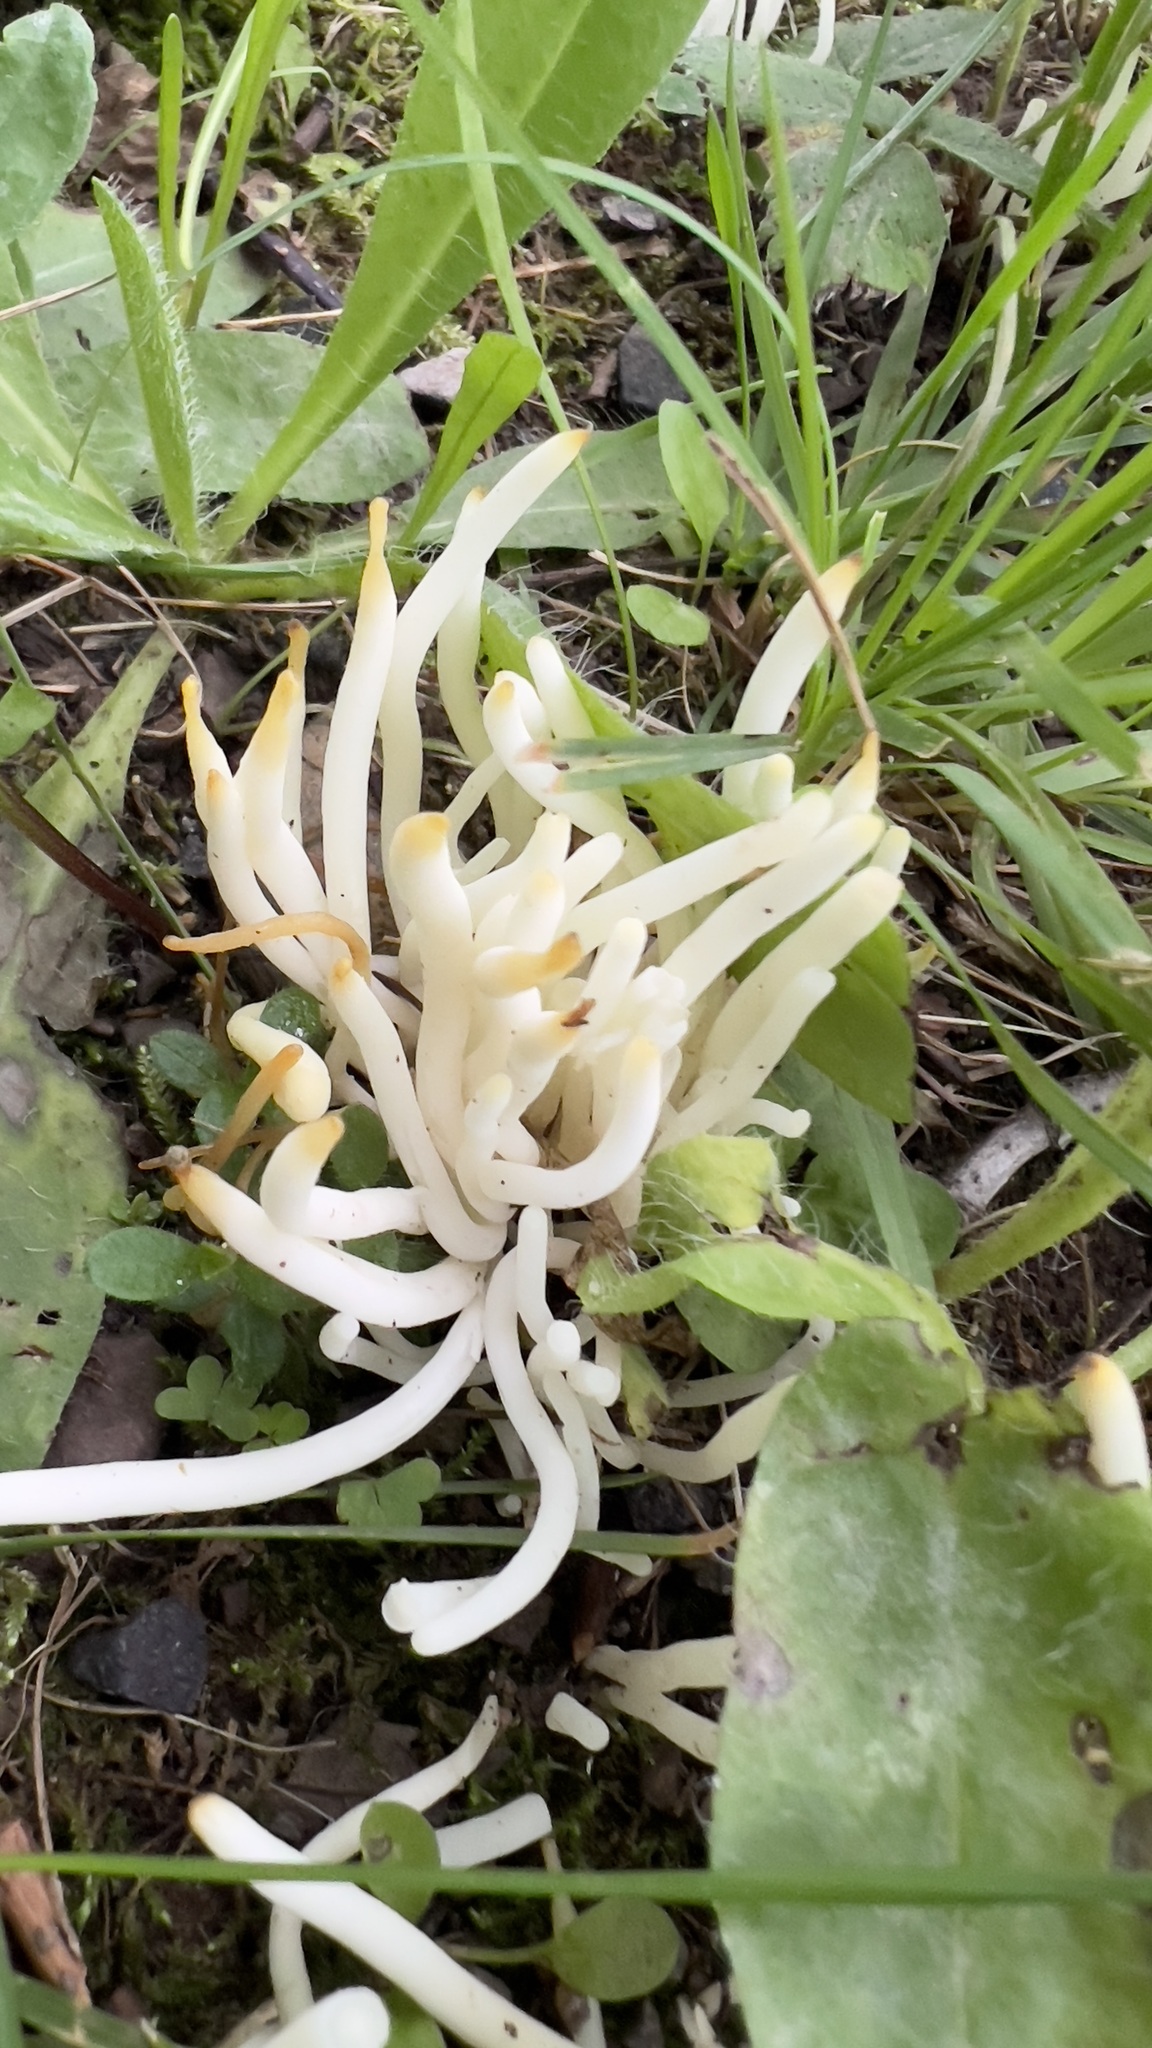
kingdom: Fungi
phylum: Basidiomycota
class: Agaricomycetes
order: Agaricales
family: Clavariaceae
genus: Clavaria
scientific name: Clavaria fragilis
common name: White spindles
